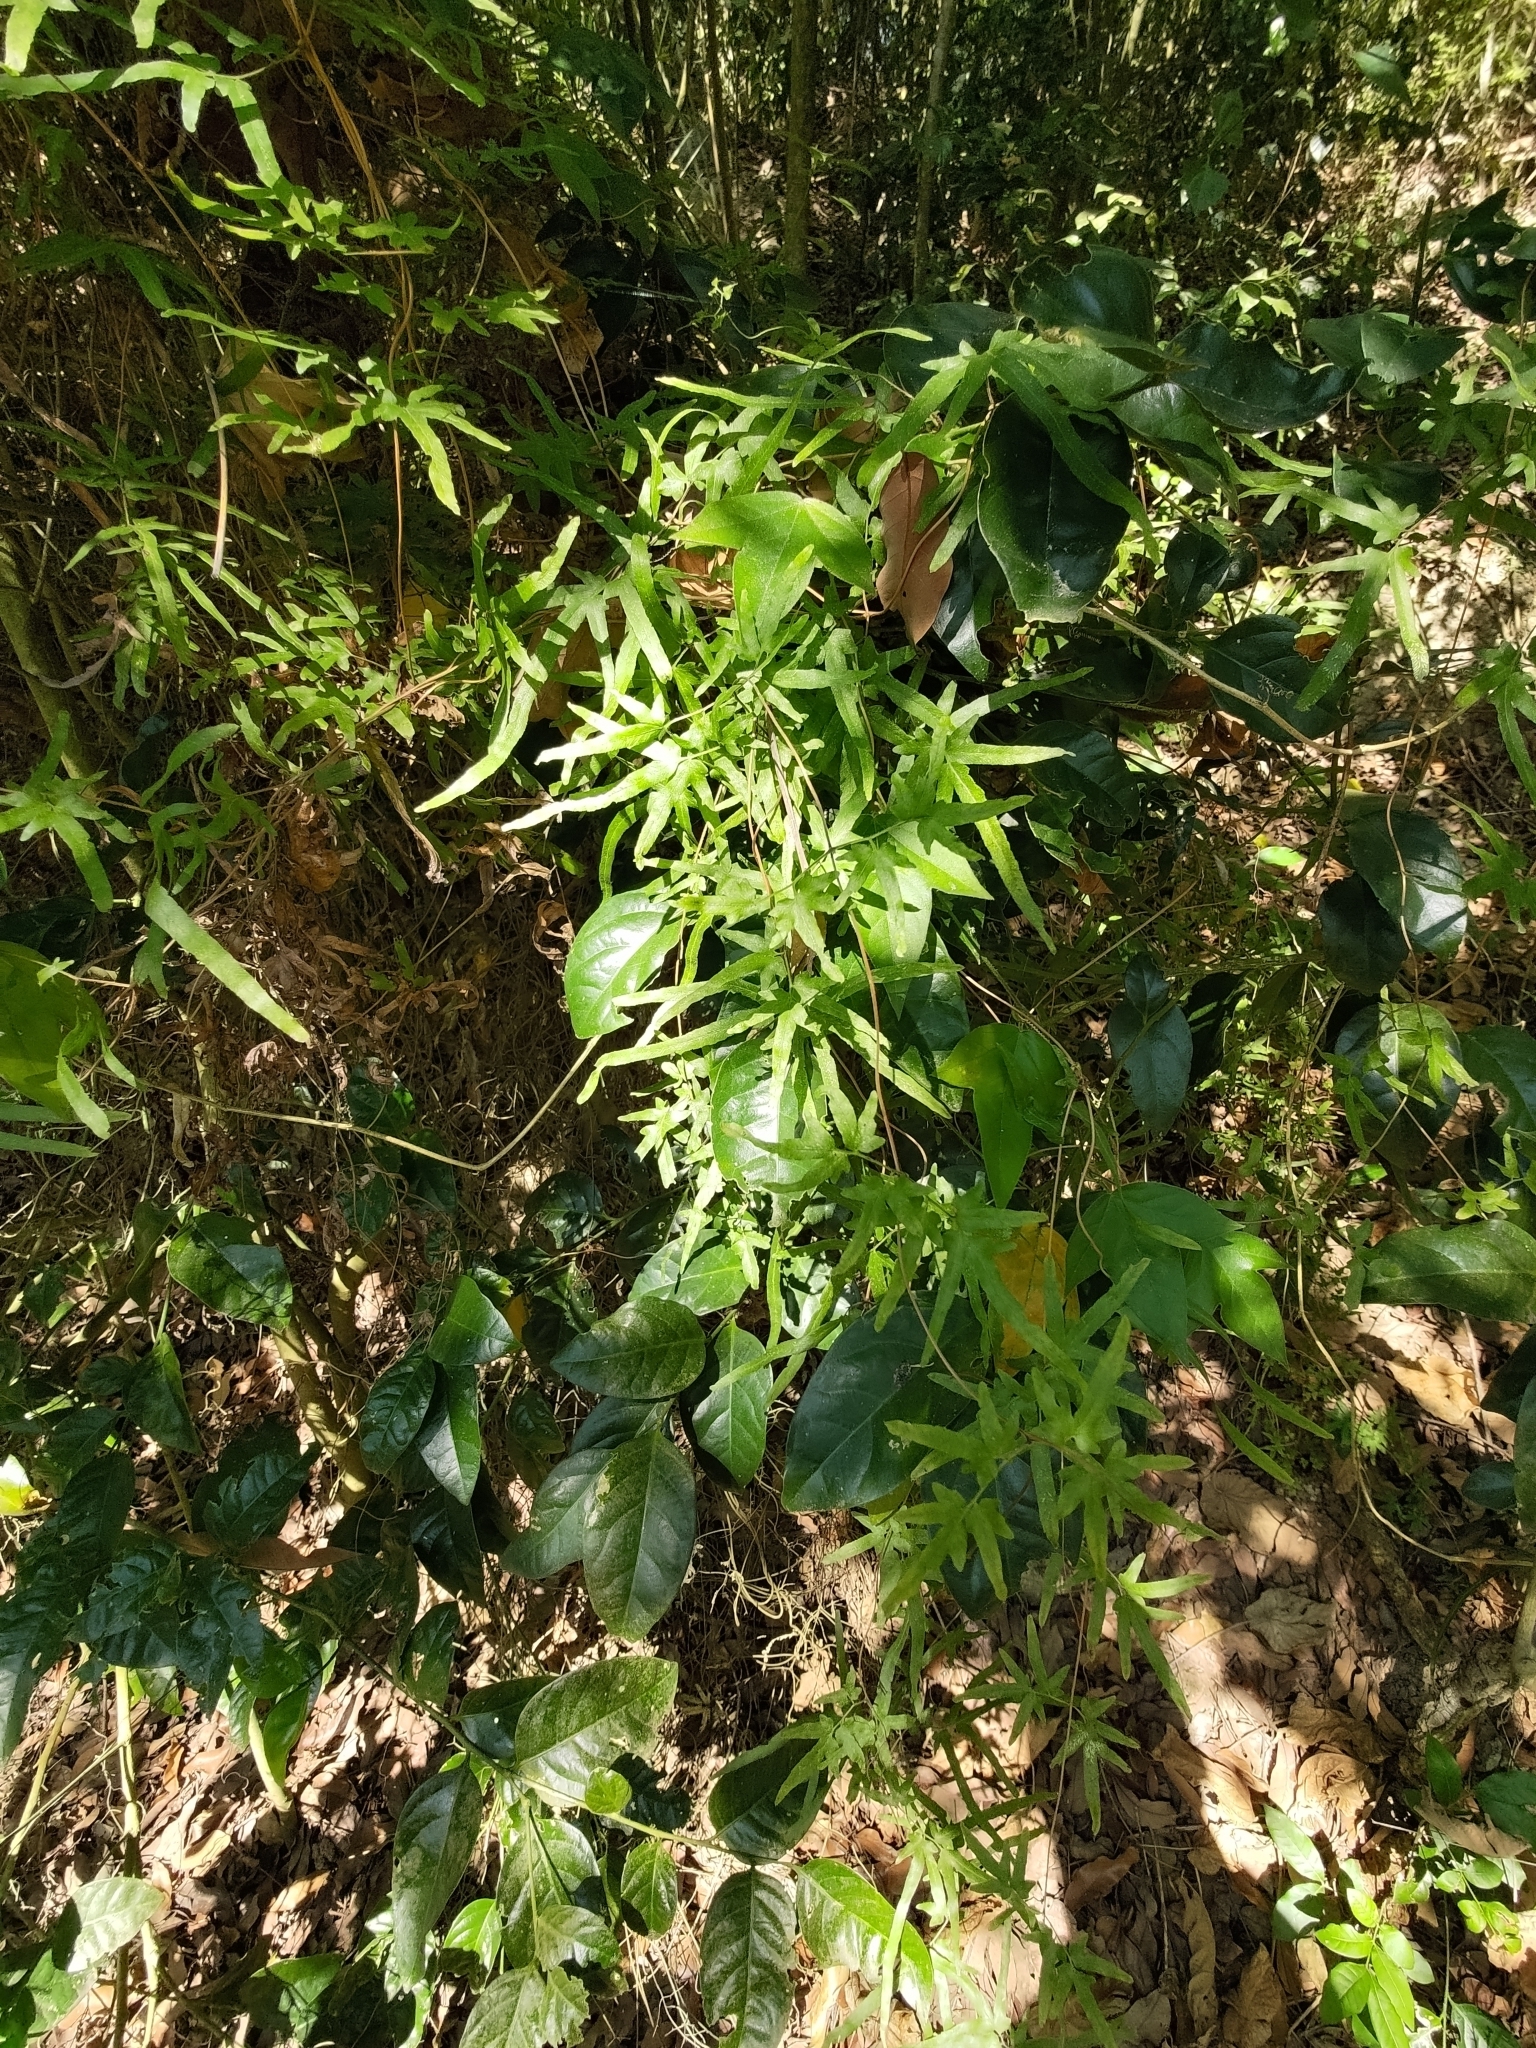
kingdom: Plantae
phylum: Tracheophyta
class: Polypodiopsida
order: Schizaeales
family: Lygodiaceae
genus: Lygodium
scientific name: Lygodium japonicum
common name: Japanese climbing fern
